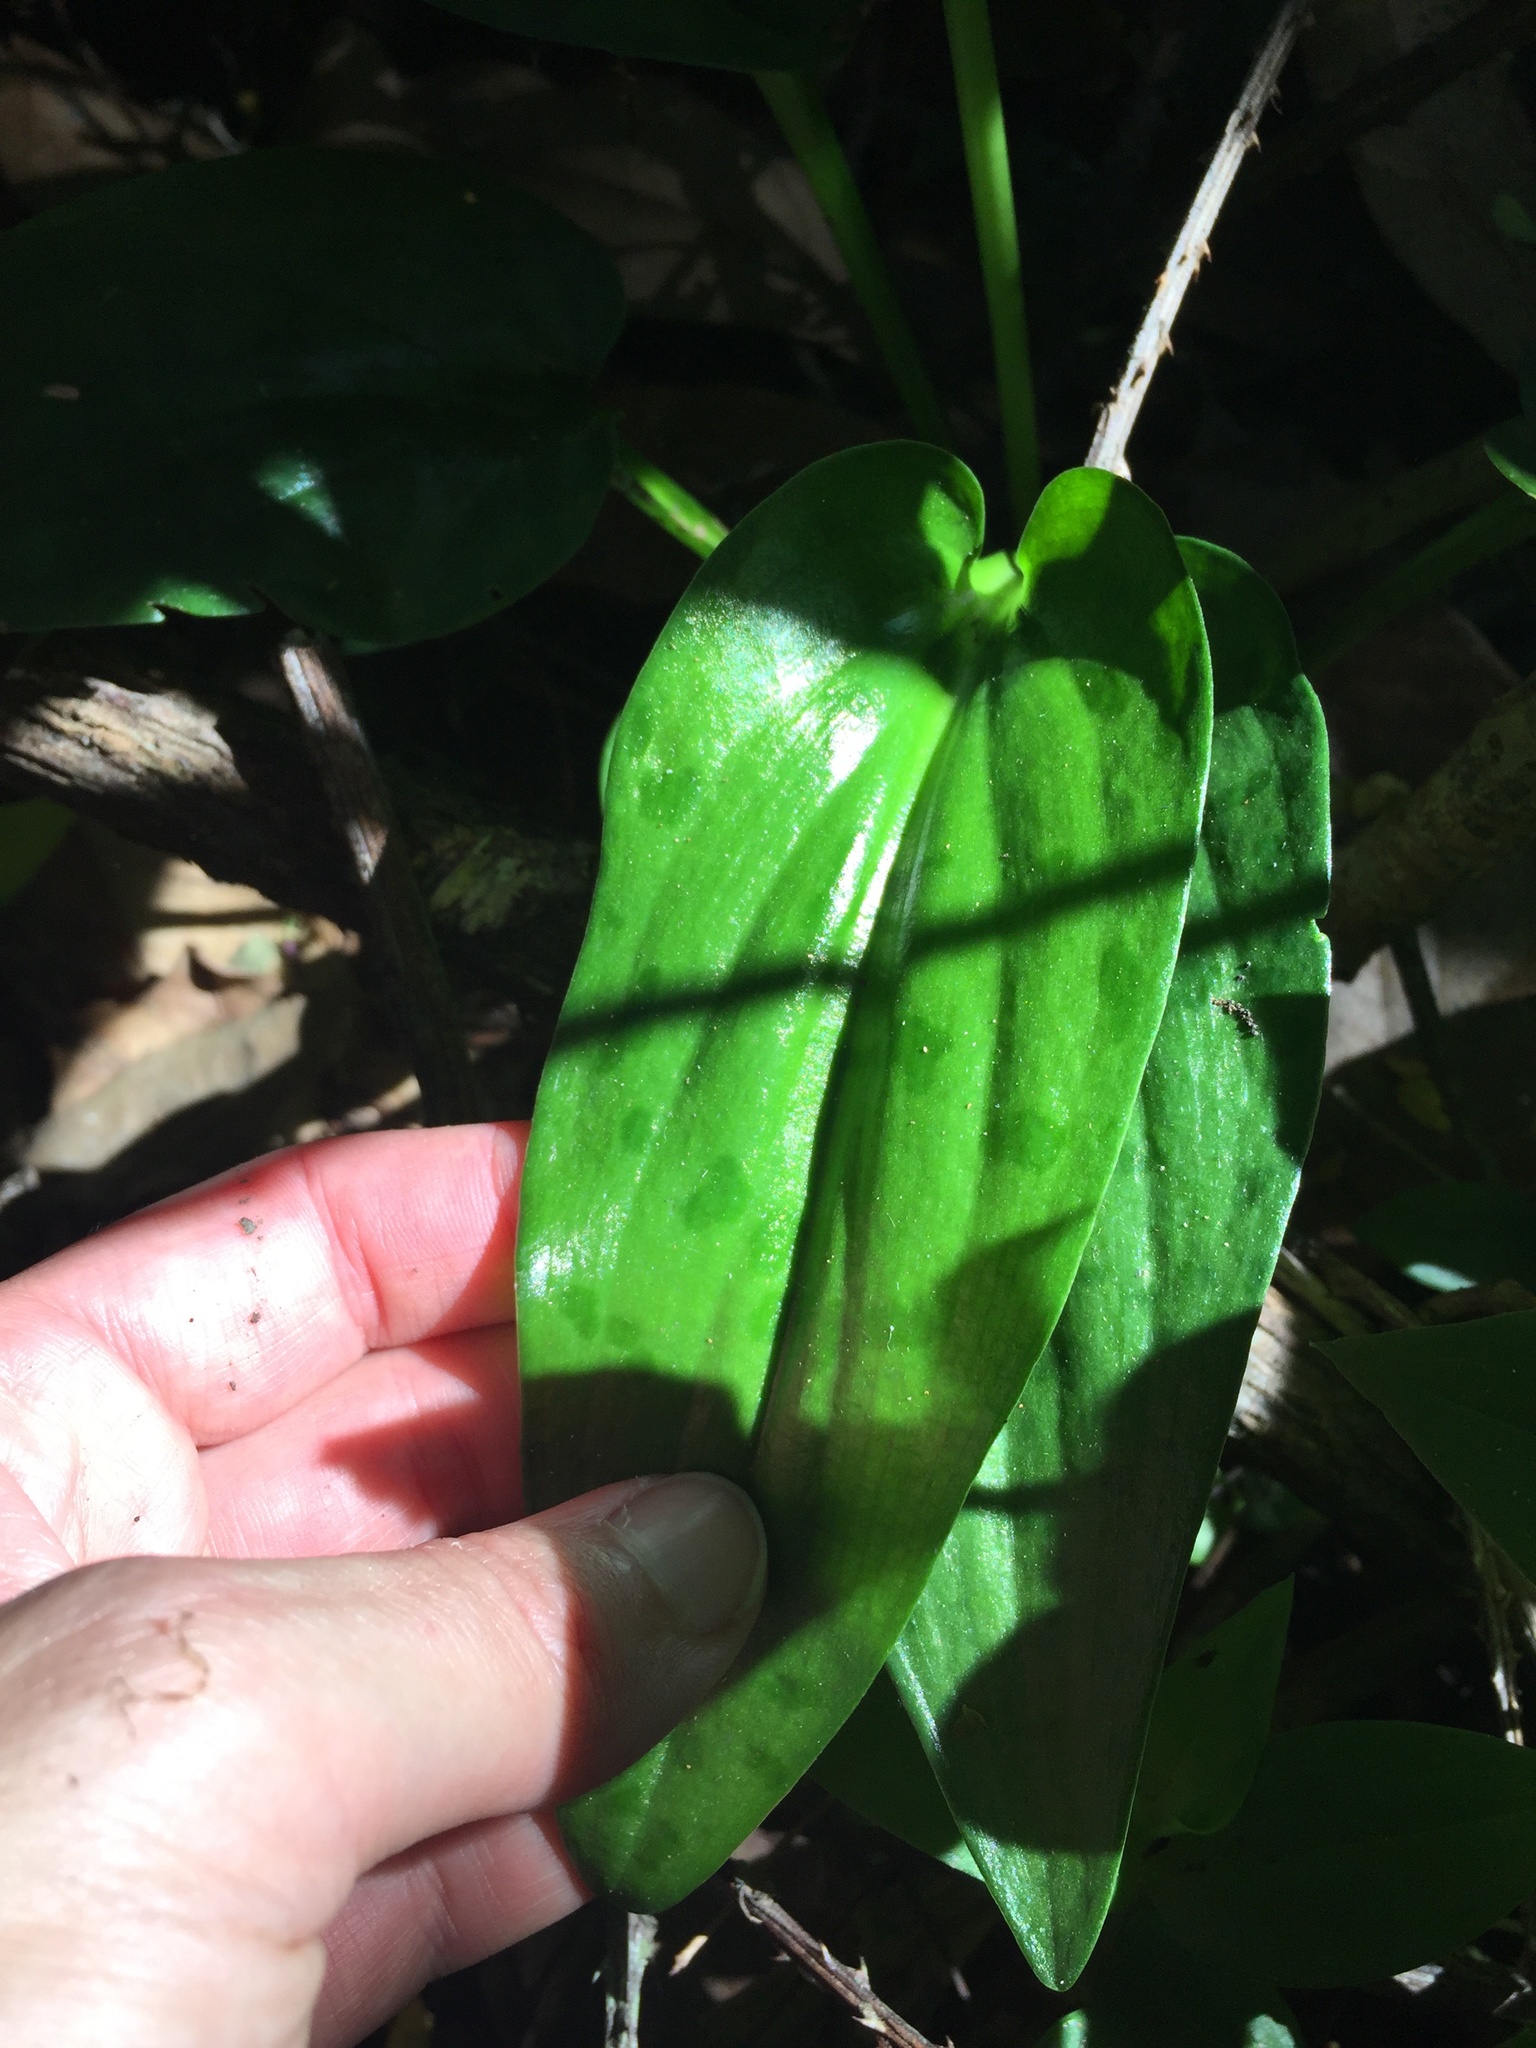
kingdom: Plantae
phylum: Tracheophyta
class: Liliopsida
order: Asparagales
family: Asparagaceae
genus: Drimiopsis
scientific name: Drimiopsis maculata
